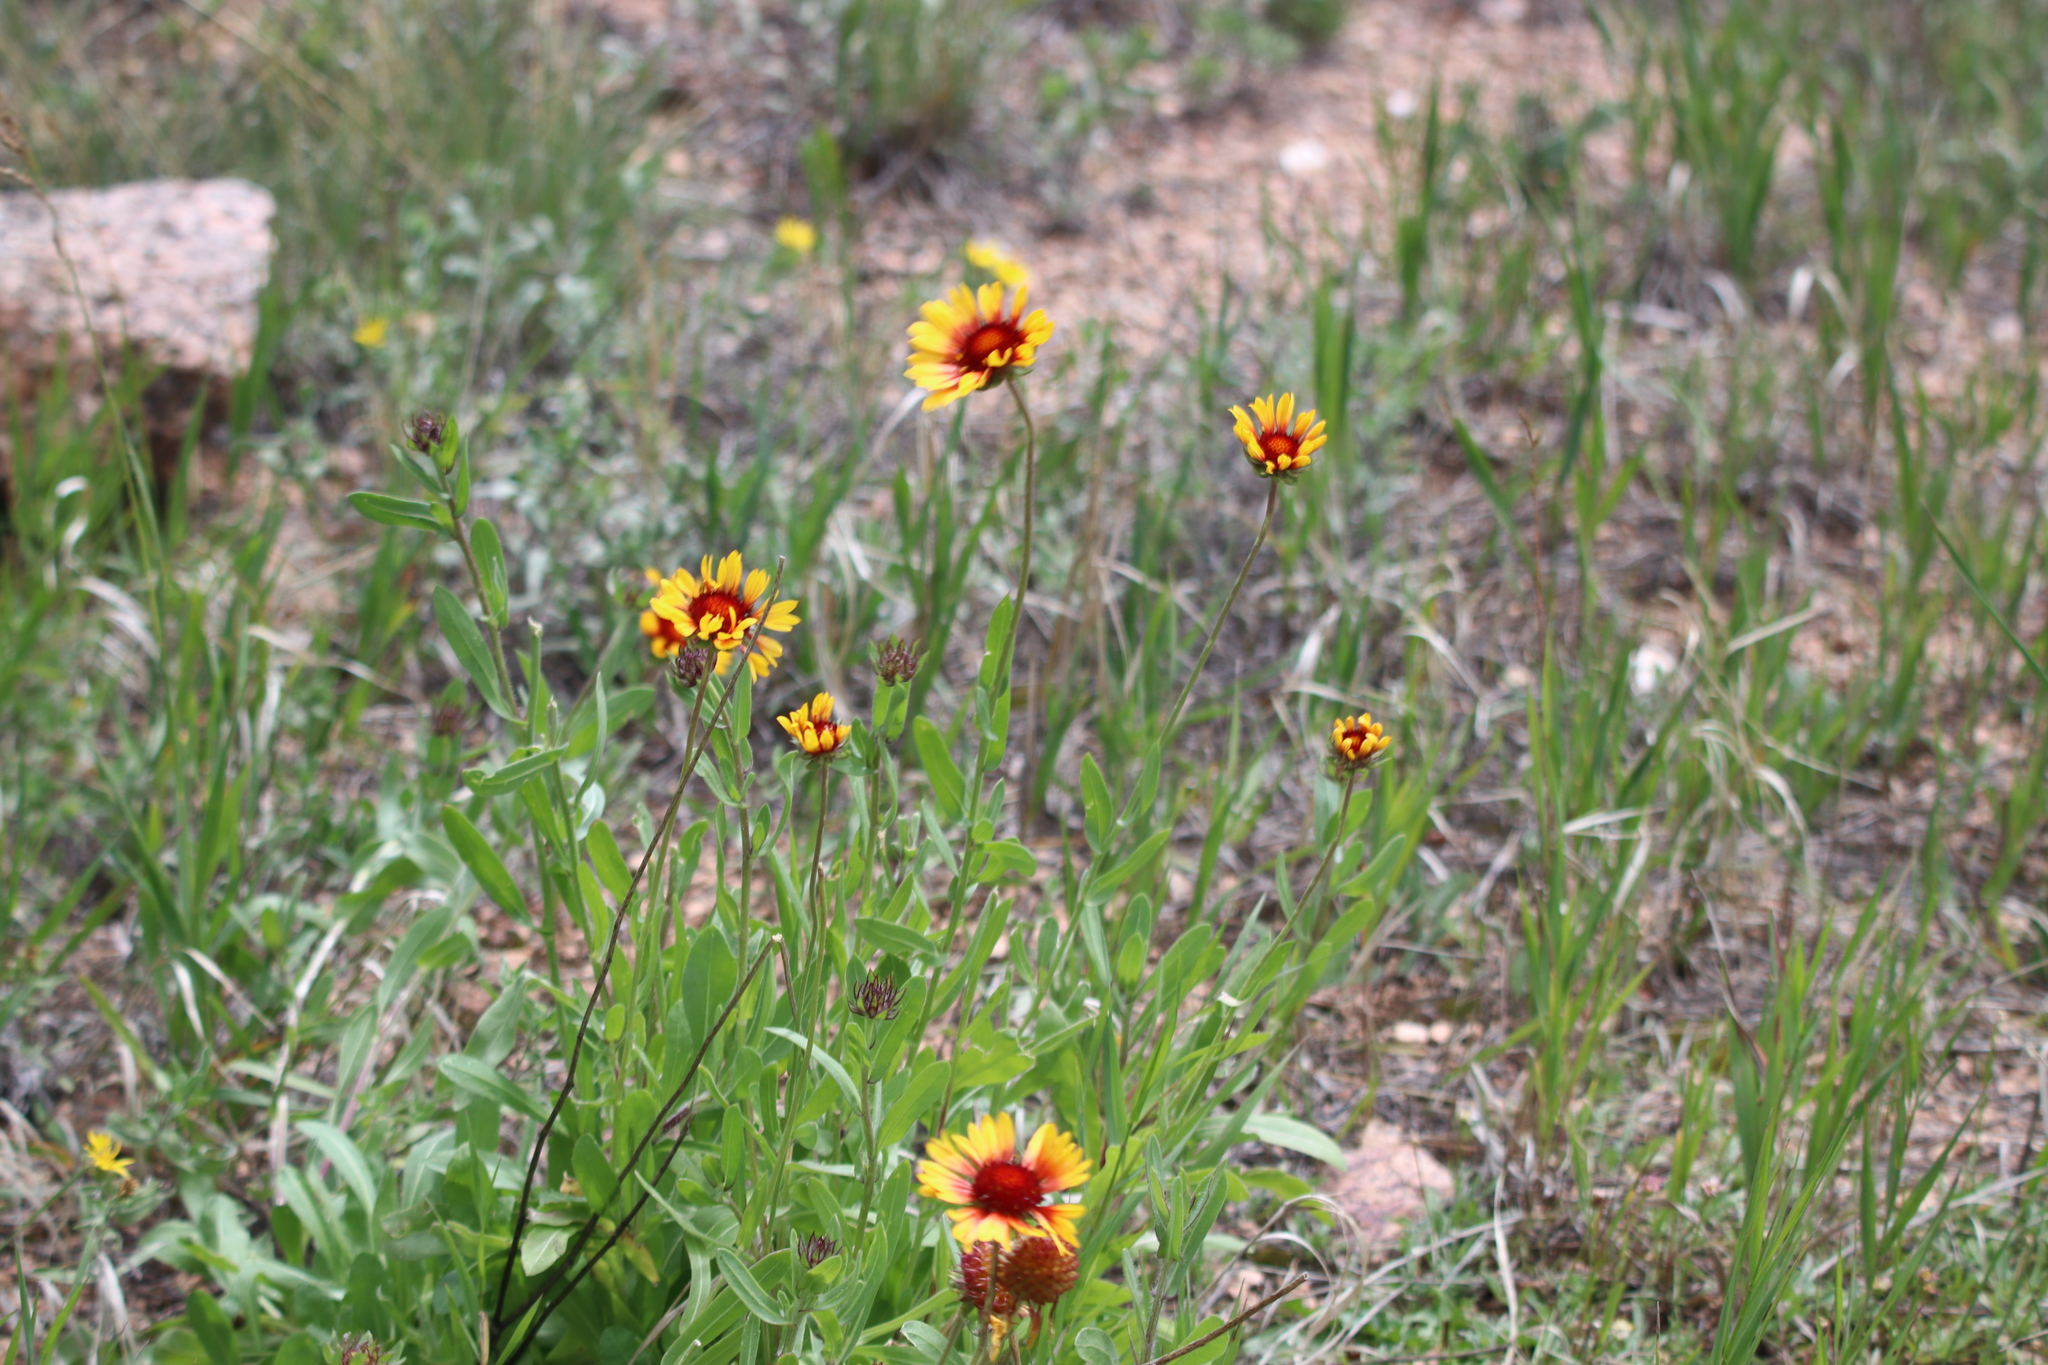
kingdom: Plantae
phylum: Tracheophyta
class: Magnoliopsida
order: Asterales
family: Asteraceae
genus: Gaillardia
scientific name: Gaillardia pulchella
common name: Firewheel
